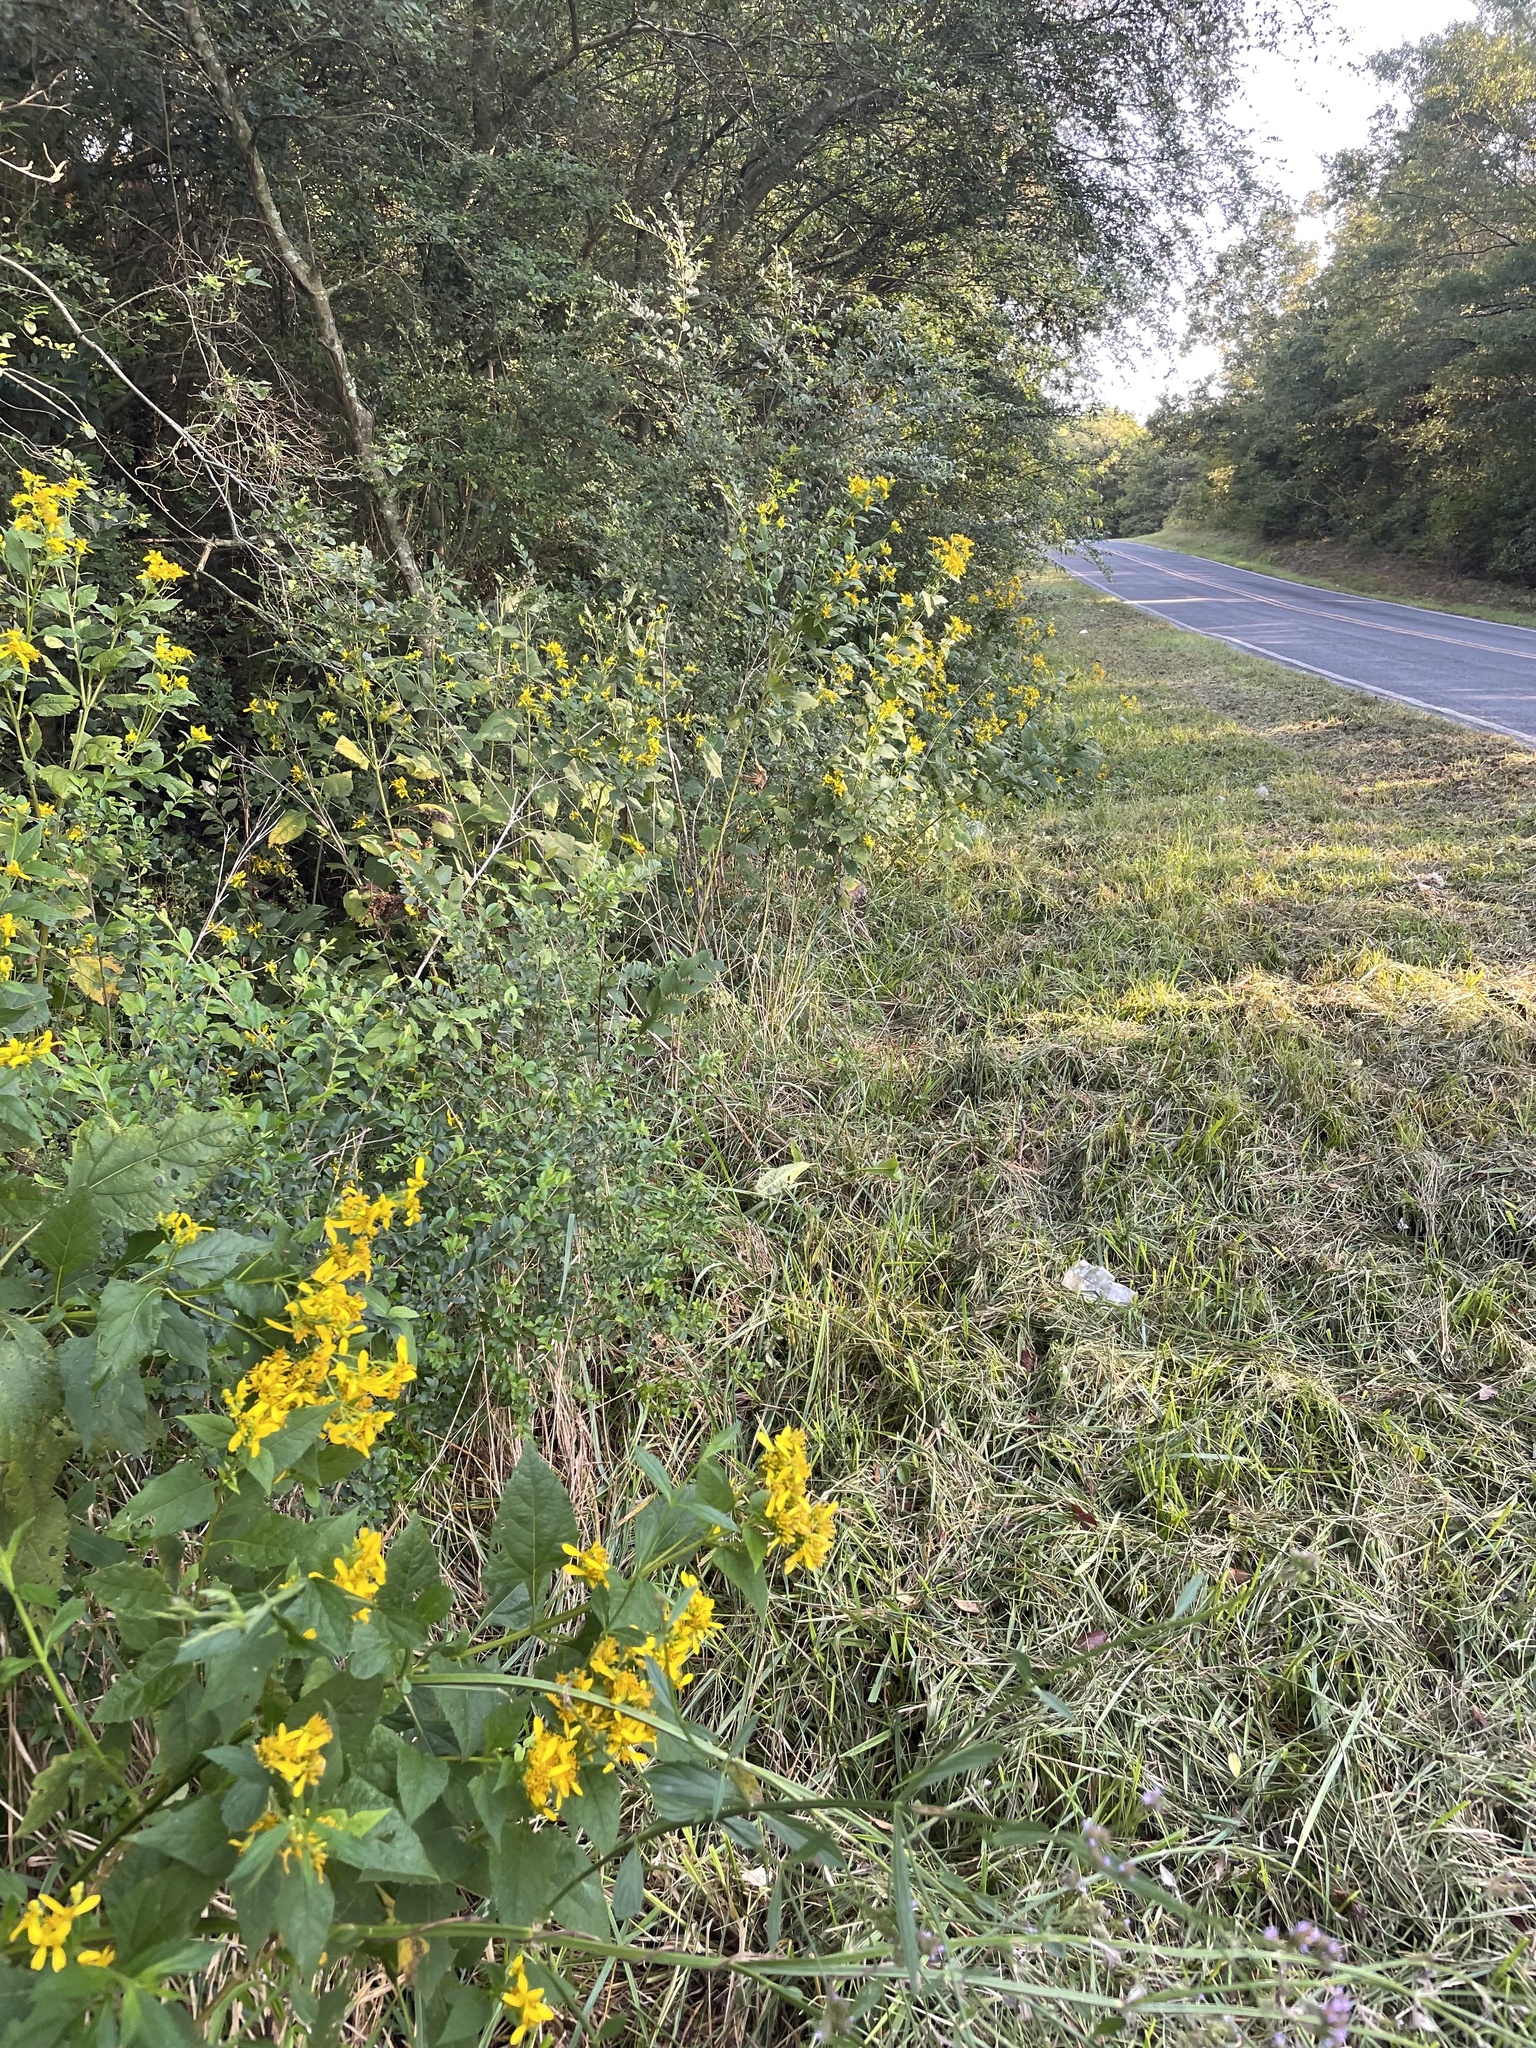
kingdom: Plantae
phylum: Tracheophyta
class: Magnoliopsida
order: Asterales
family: Asteraceae
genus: Verbesina
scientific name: Verbesina occidentalis
